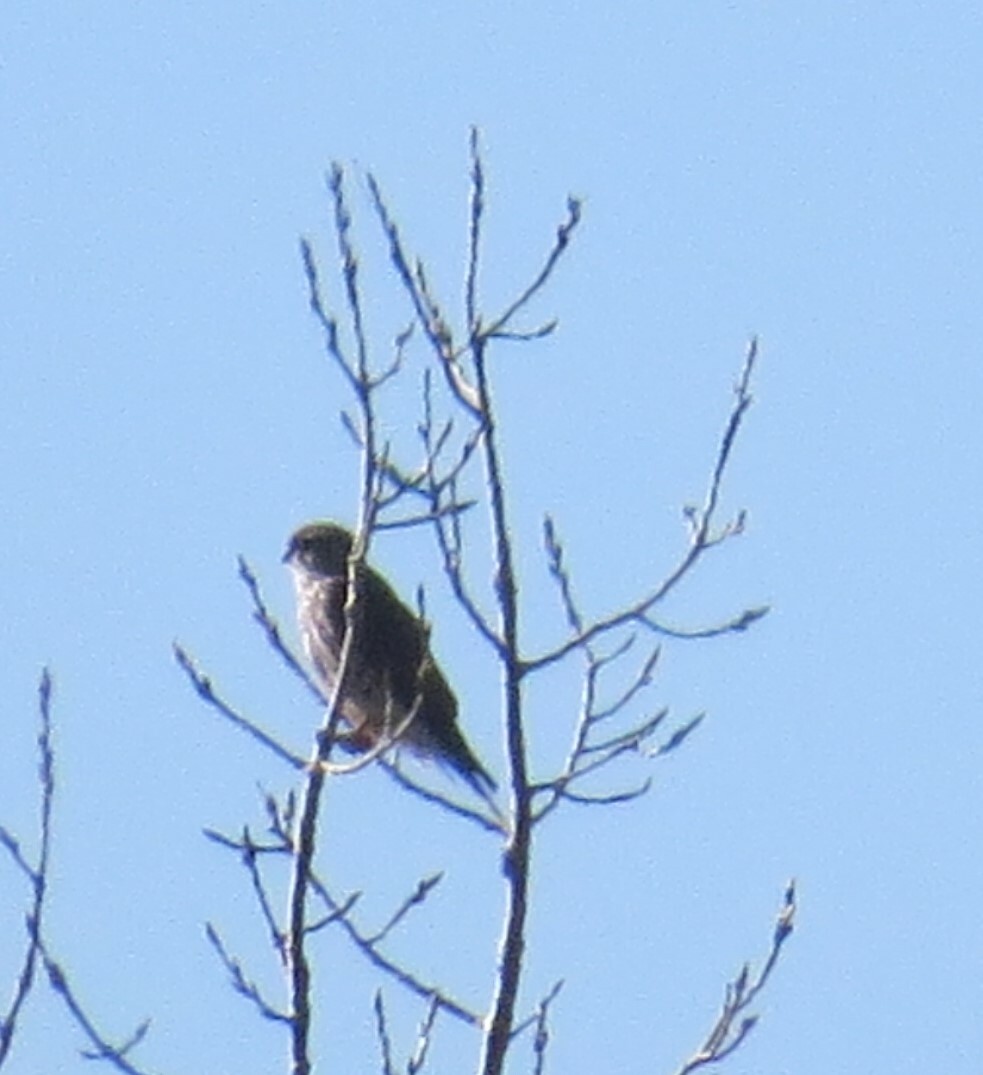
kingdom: Animalia
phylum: Chordata
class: Aves
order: Falconiformes
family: Falconidae
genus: Falco
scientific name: Falco columbarius
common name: Merlin
